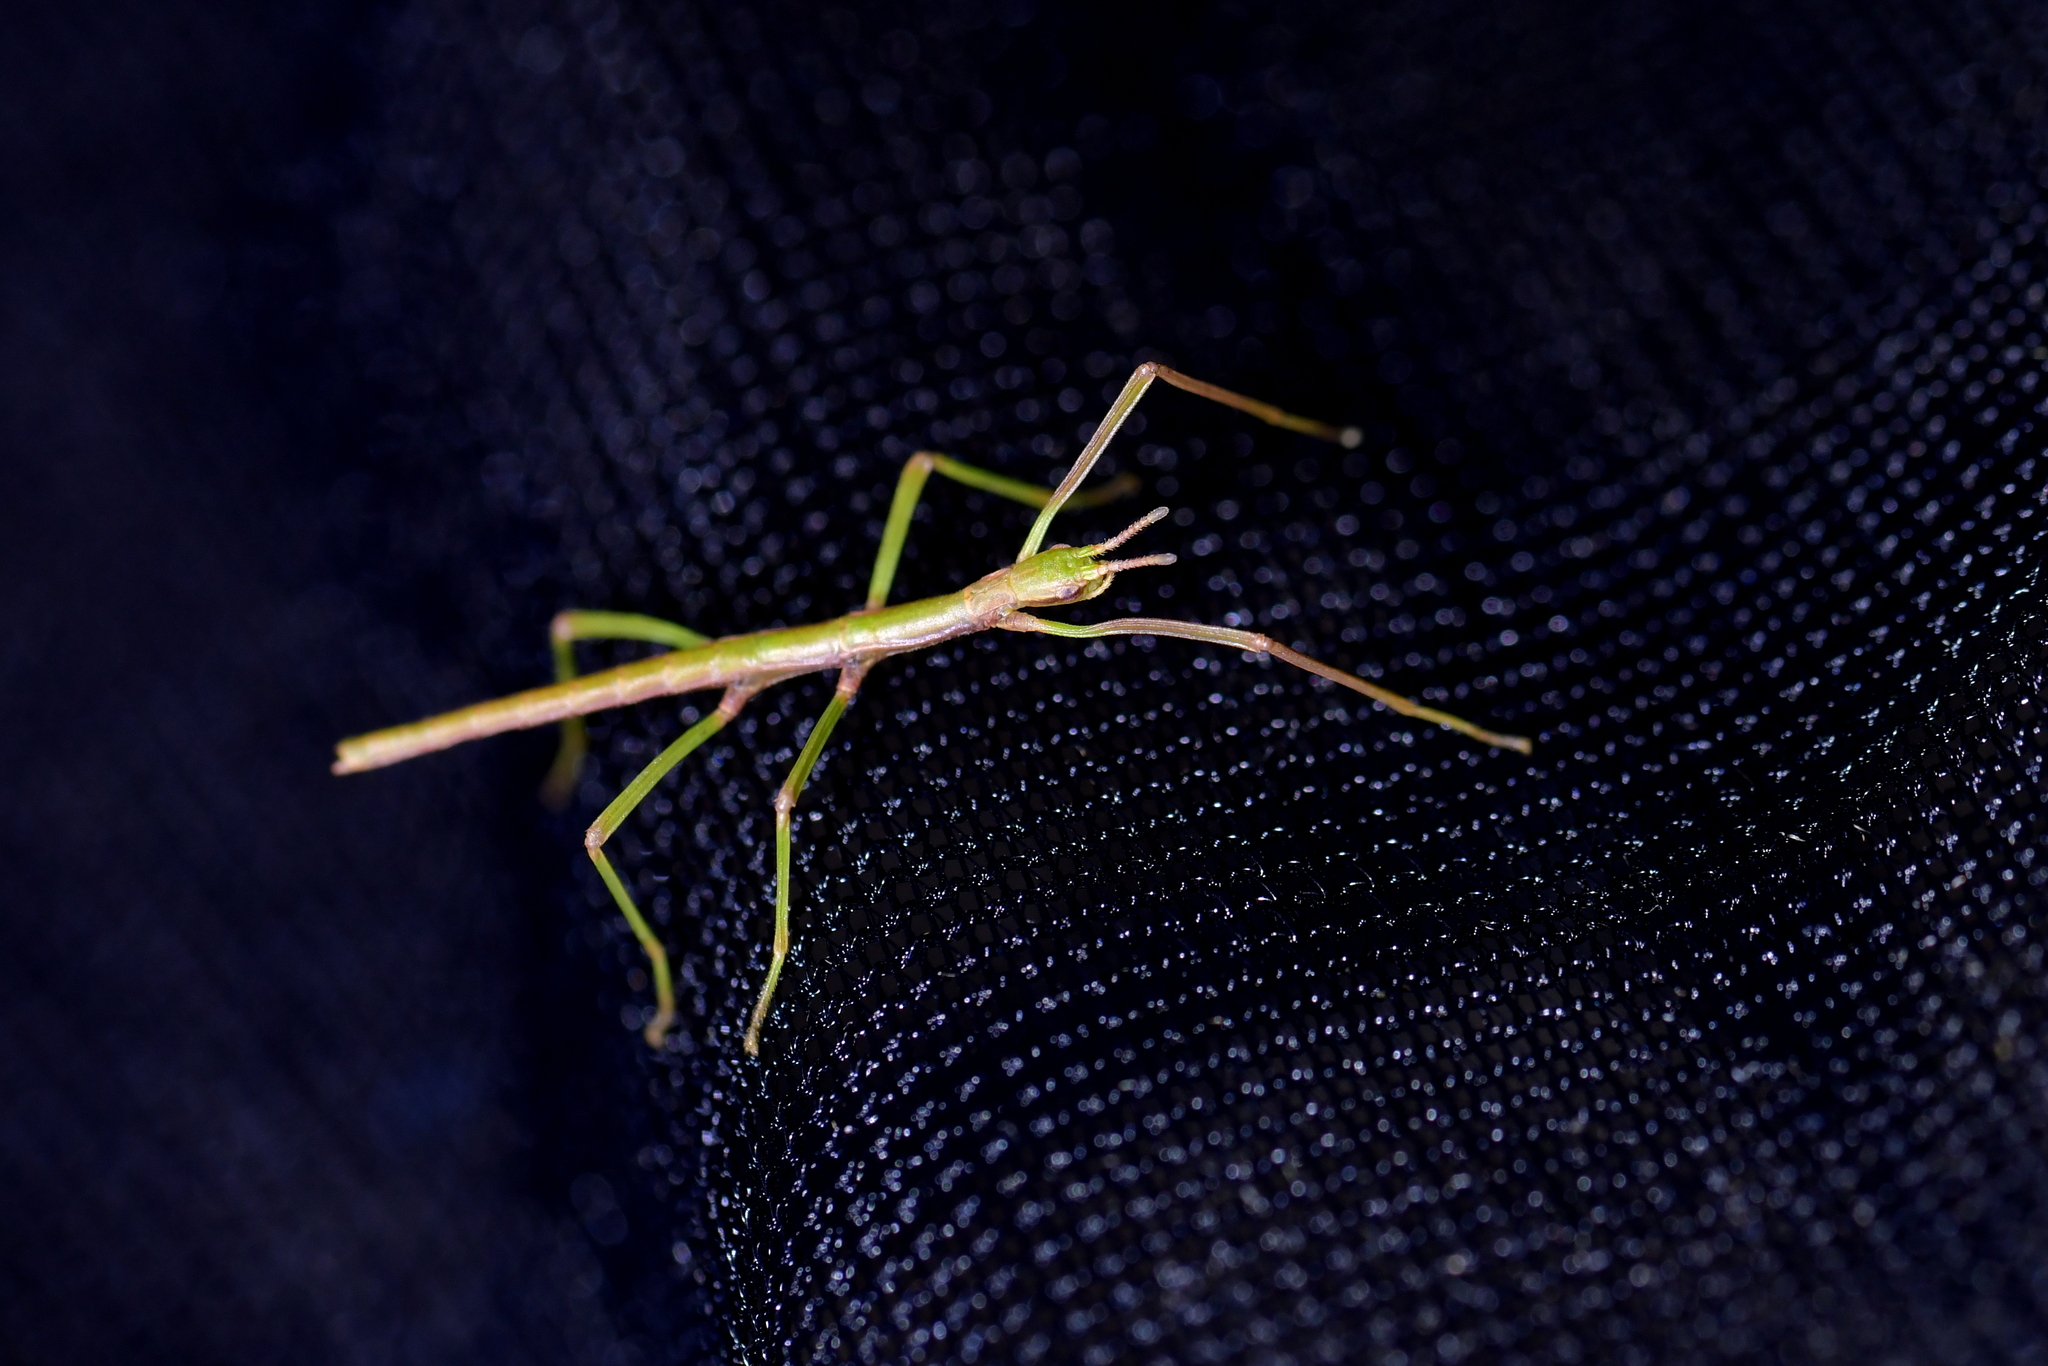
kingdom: Animalia
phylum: Arthropoda
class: Insecta
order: Phasmida
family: Phasmatidae
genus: Clitarchus
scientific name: Clitarchus hookeri
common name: Smooth stick insect
